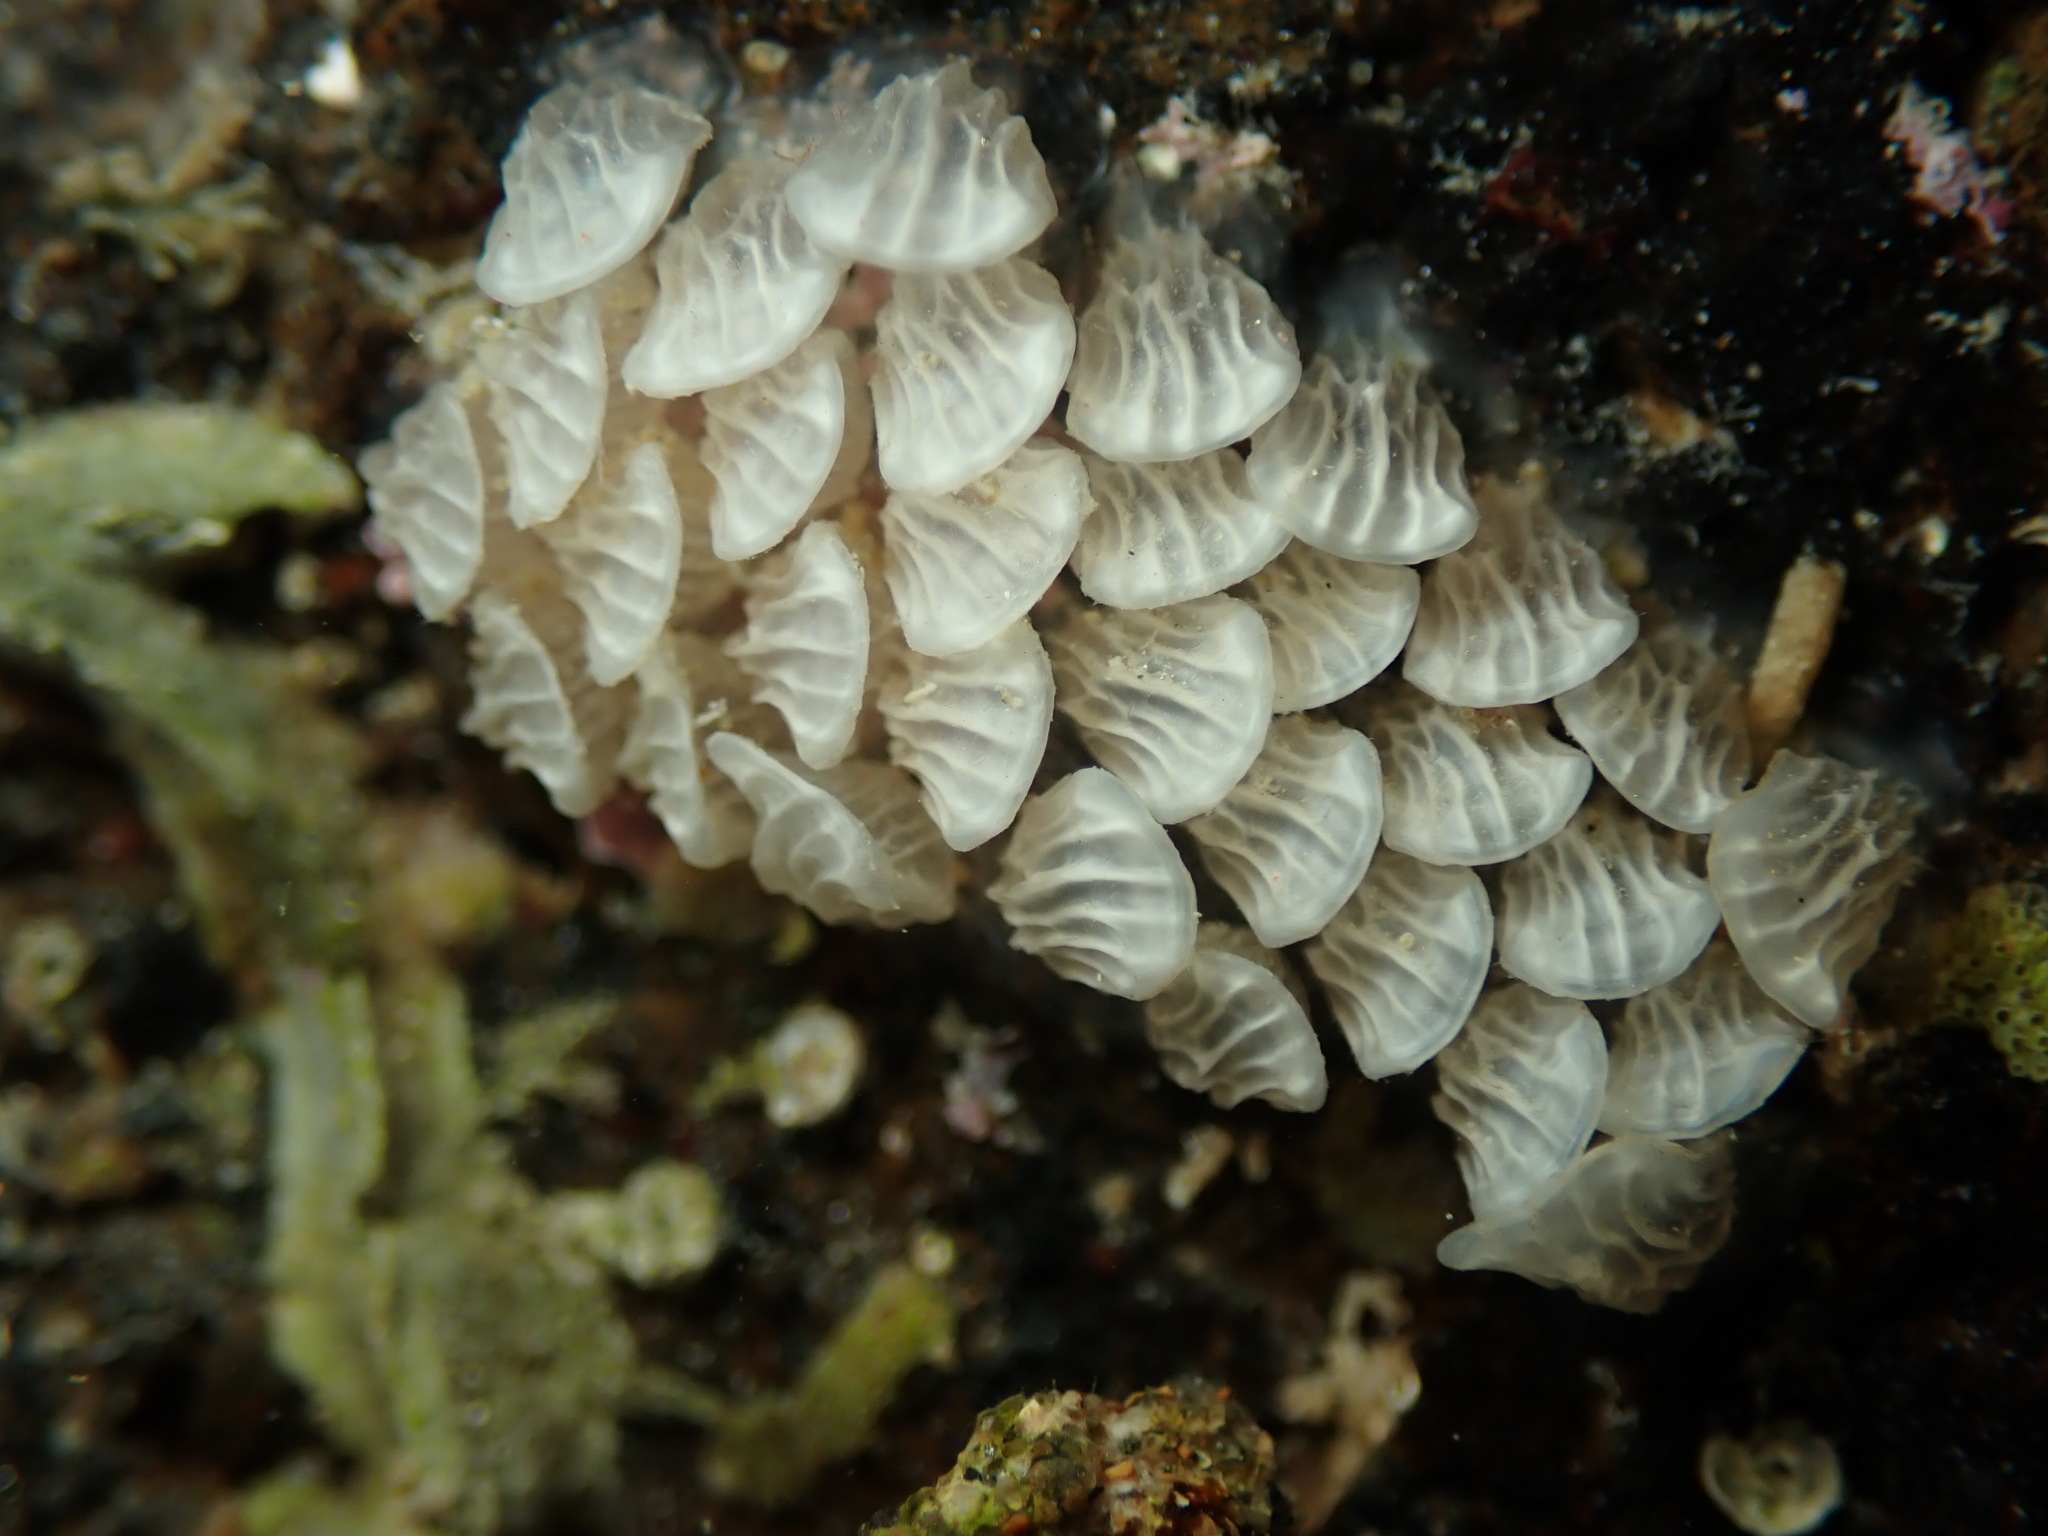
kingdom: Animalia
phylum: Mollusca
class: Gastropoda
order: Neogastropoda
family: Cominellidae
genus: Cominella
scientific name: Cominella virgata
